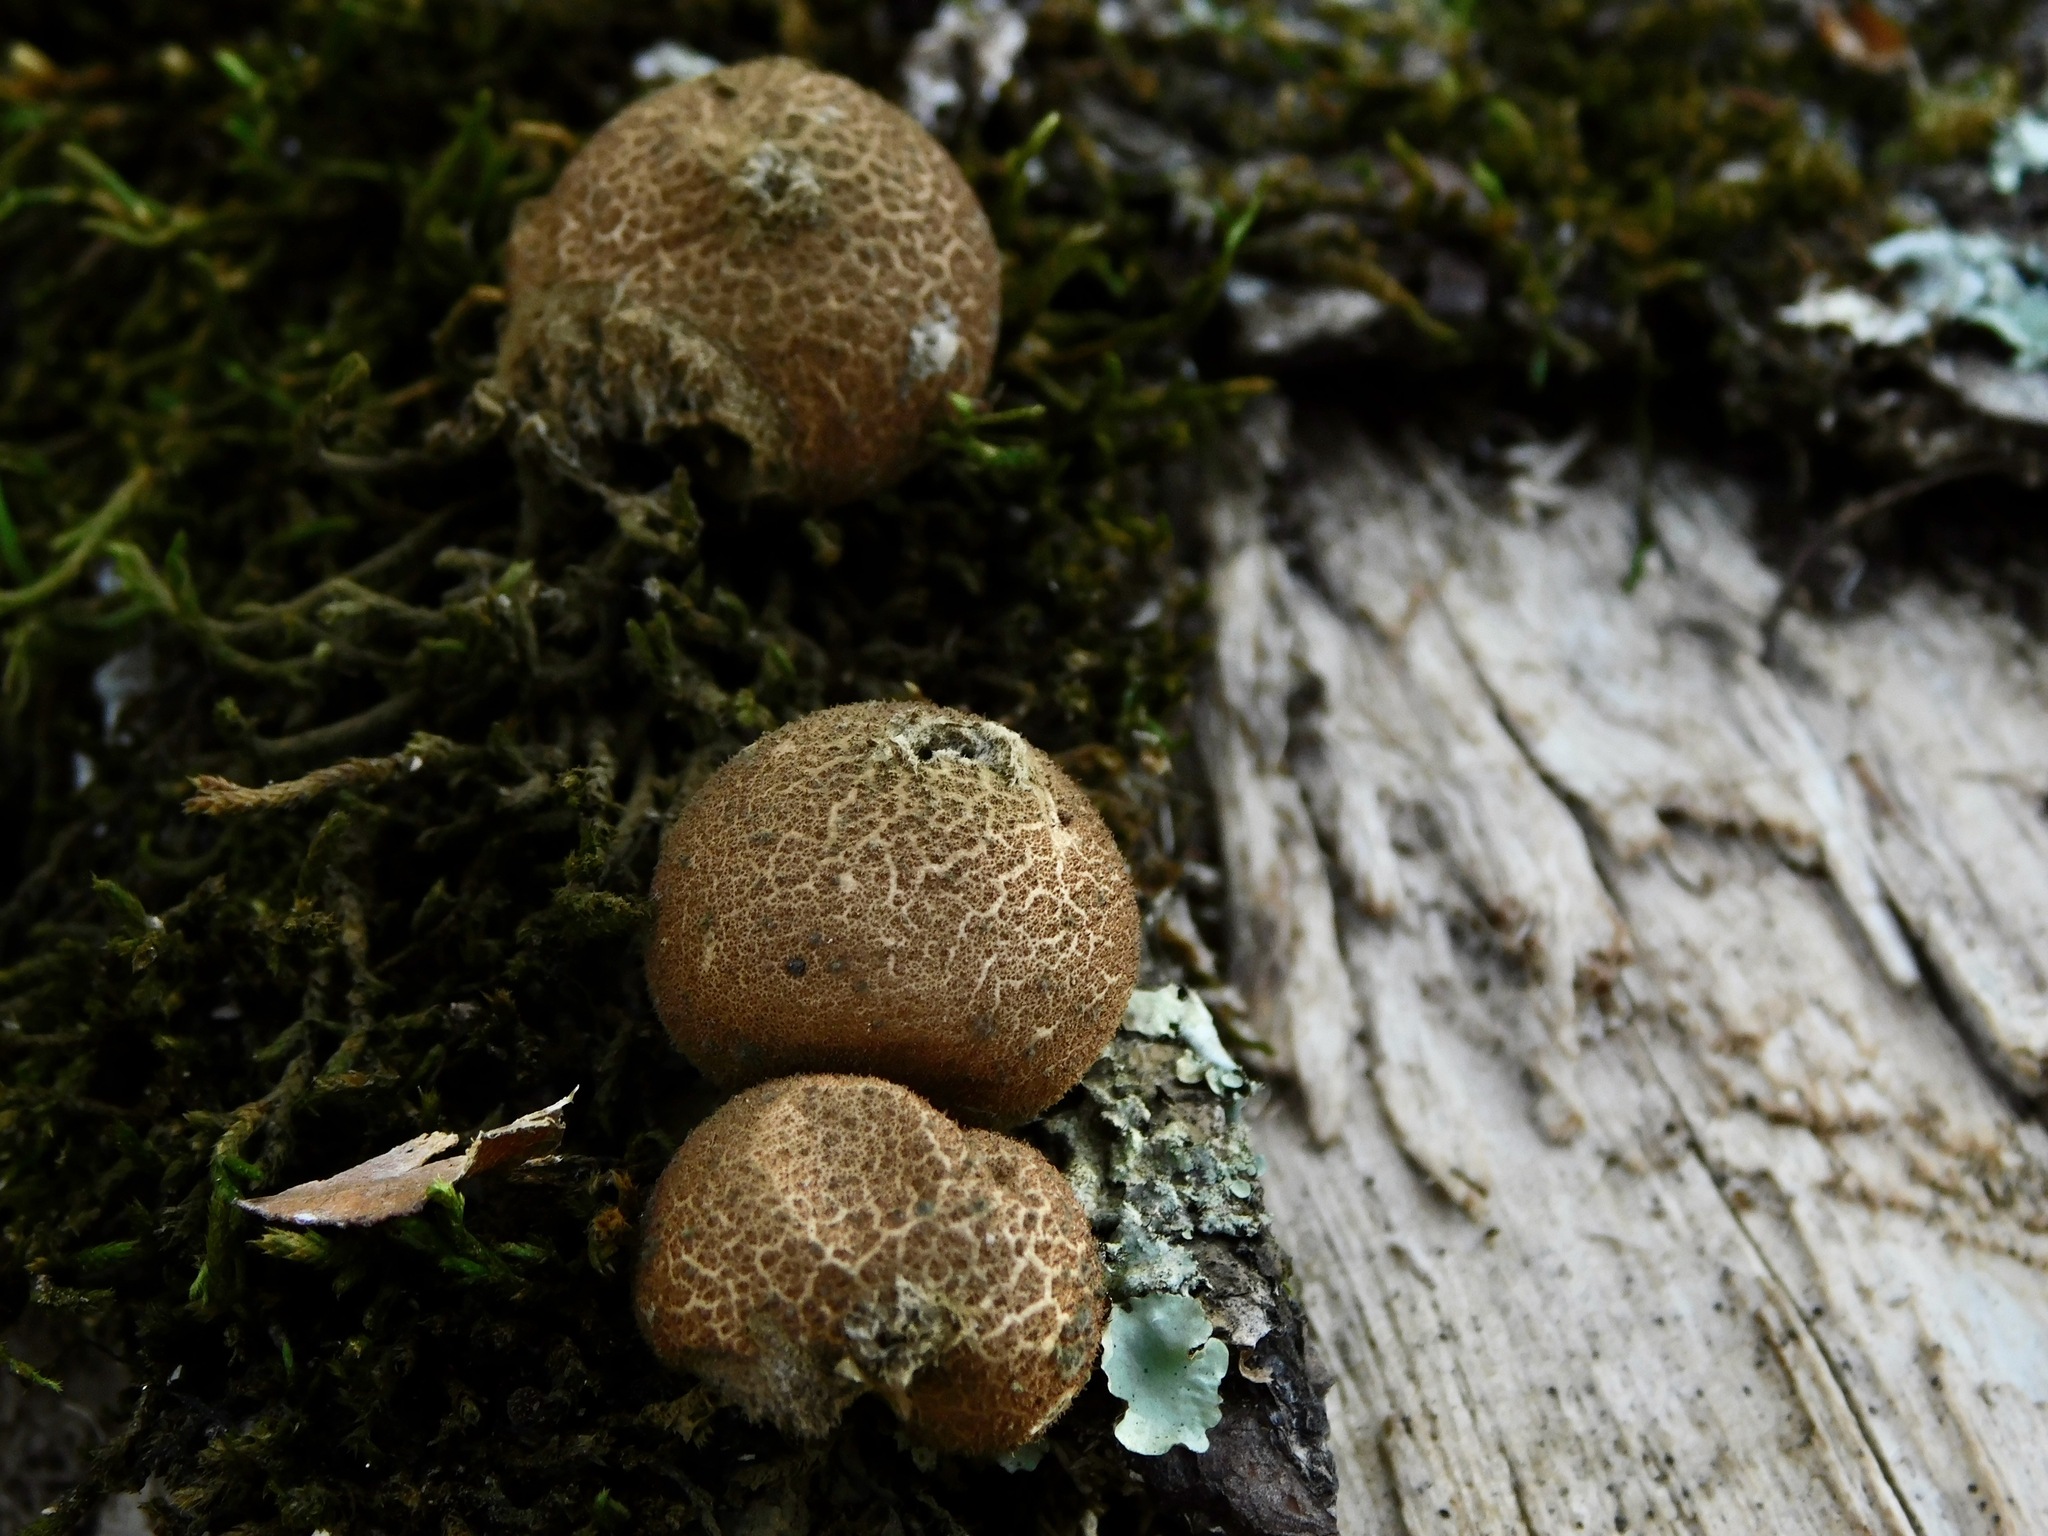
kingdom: Fungi
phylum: Basidiomycota
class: Agaricomycetes
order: Agaricales
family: Lycoperdaceae
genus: Apioperdon
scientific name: Apioperdon pyriforme
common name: Pear-shaped puffball
